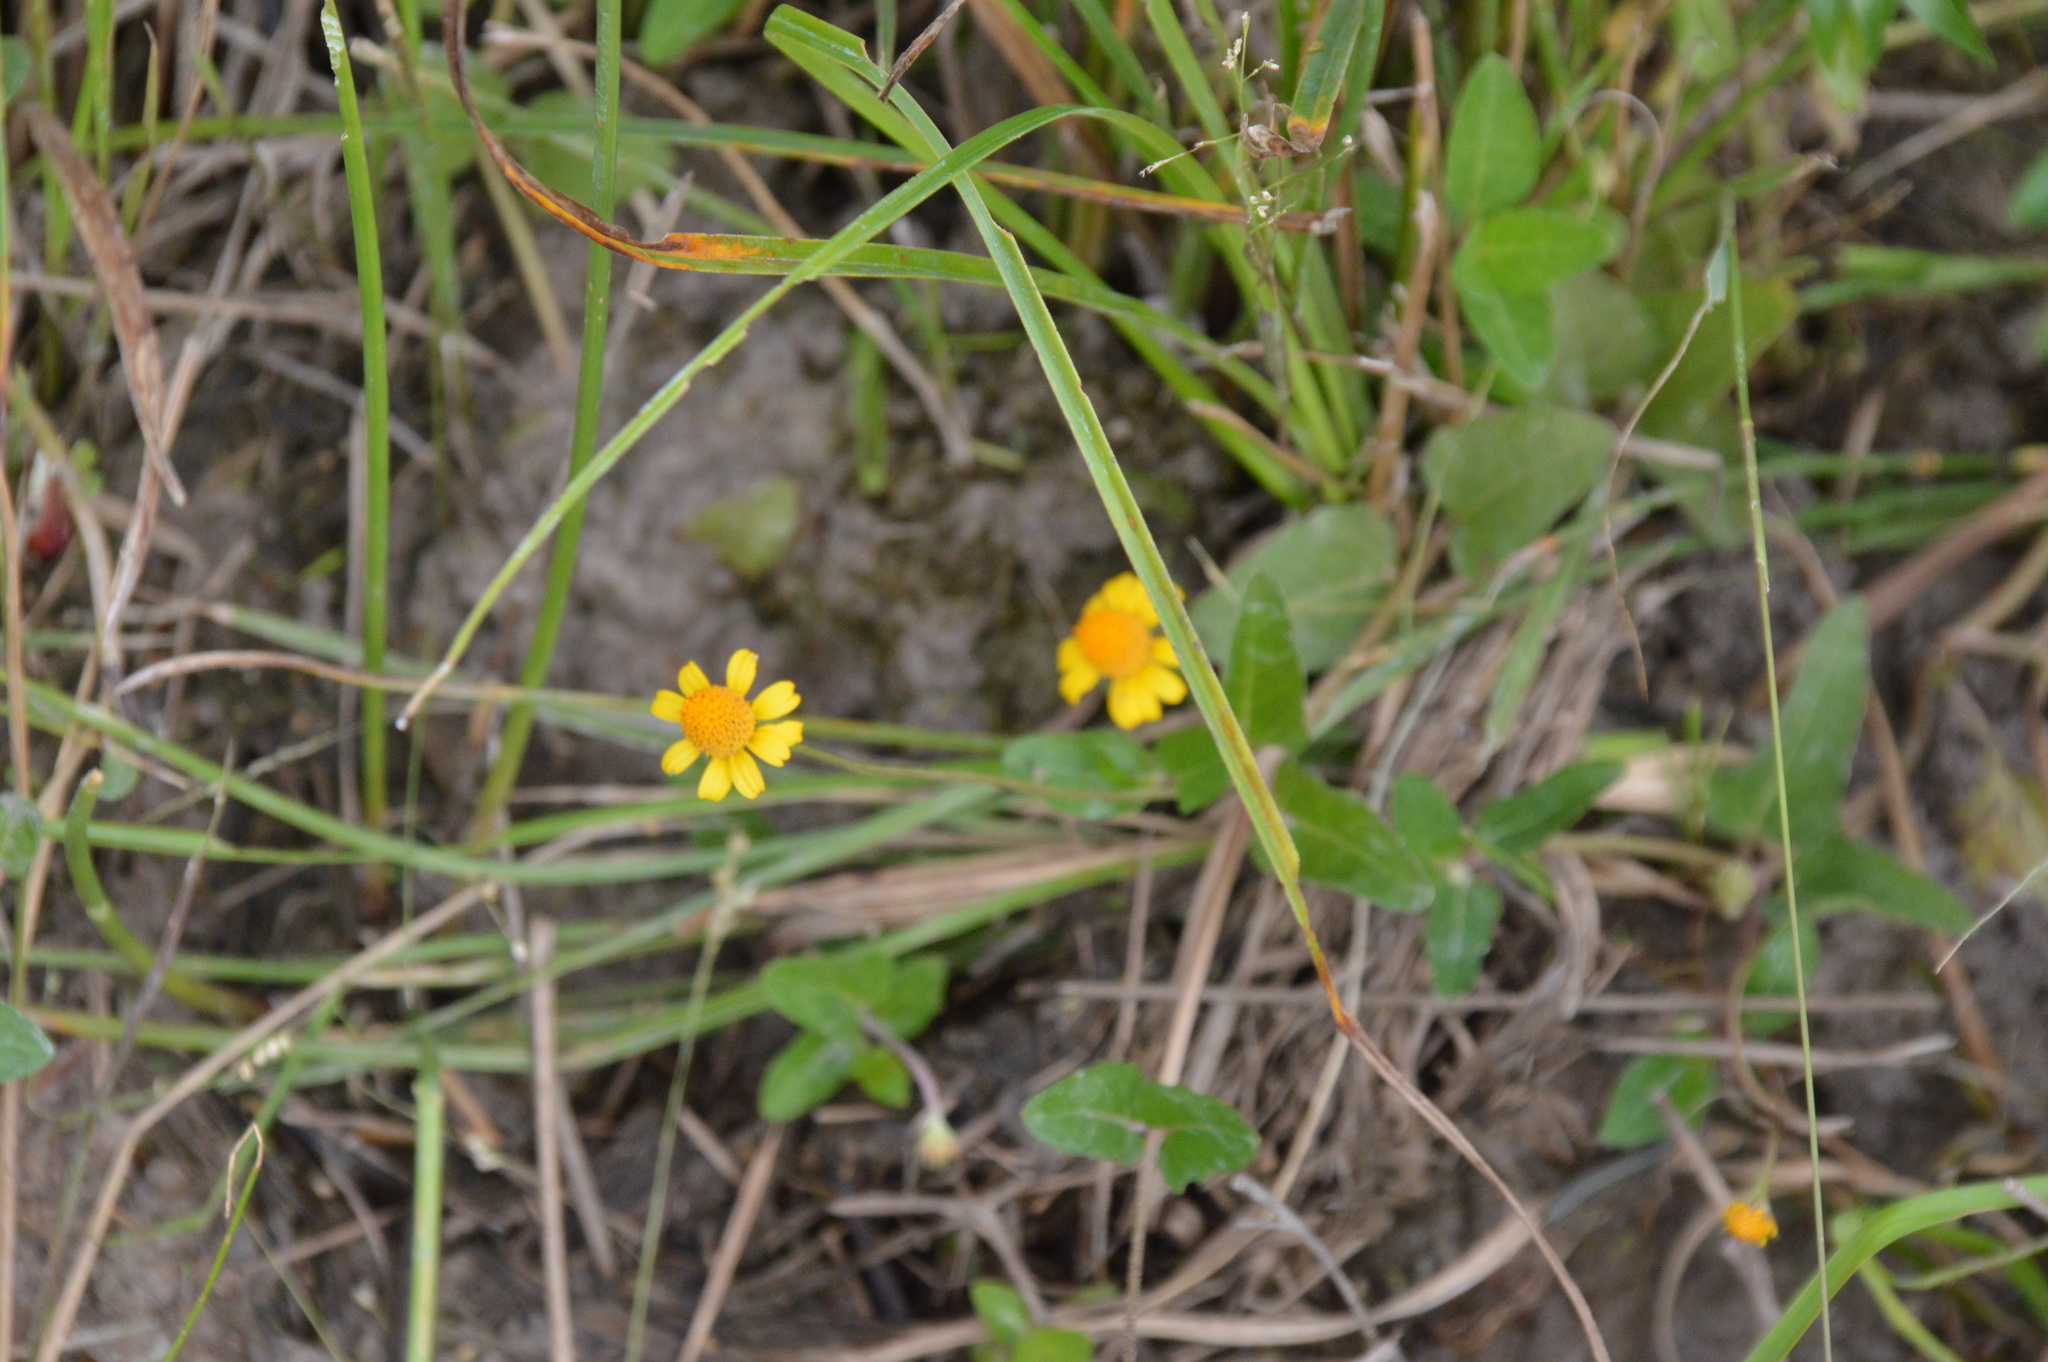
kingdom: Plantae
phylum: Tracheophyta
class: Magnoliopsida
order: Asterales
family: Asteraceae
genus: Acmella
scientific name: Acmella repens
